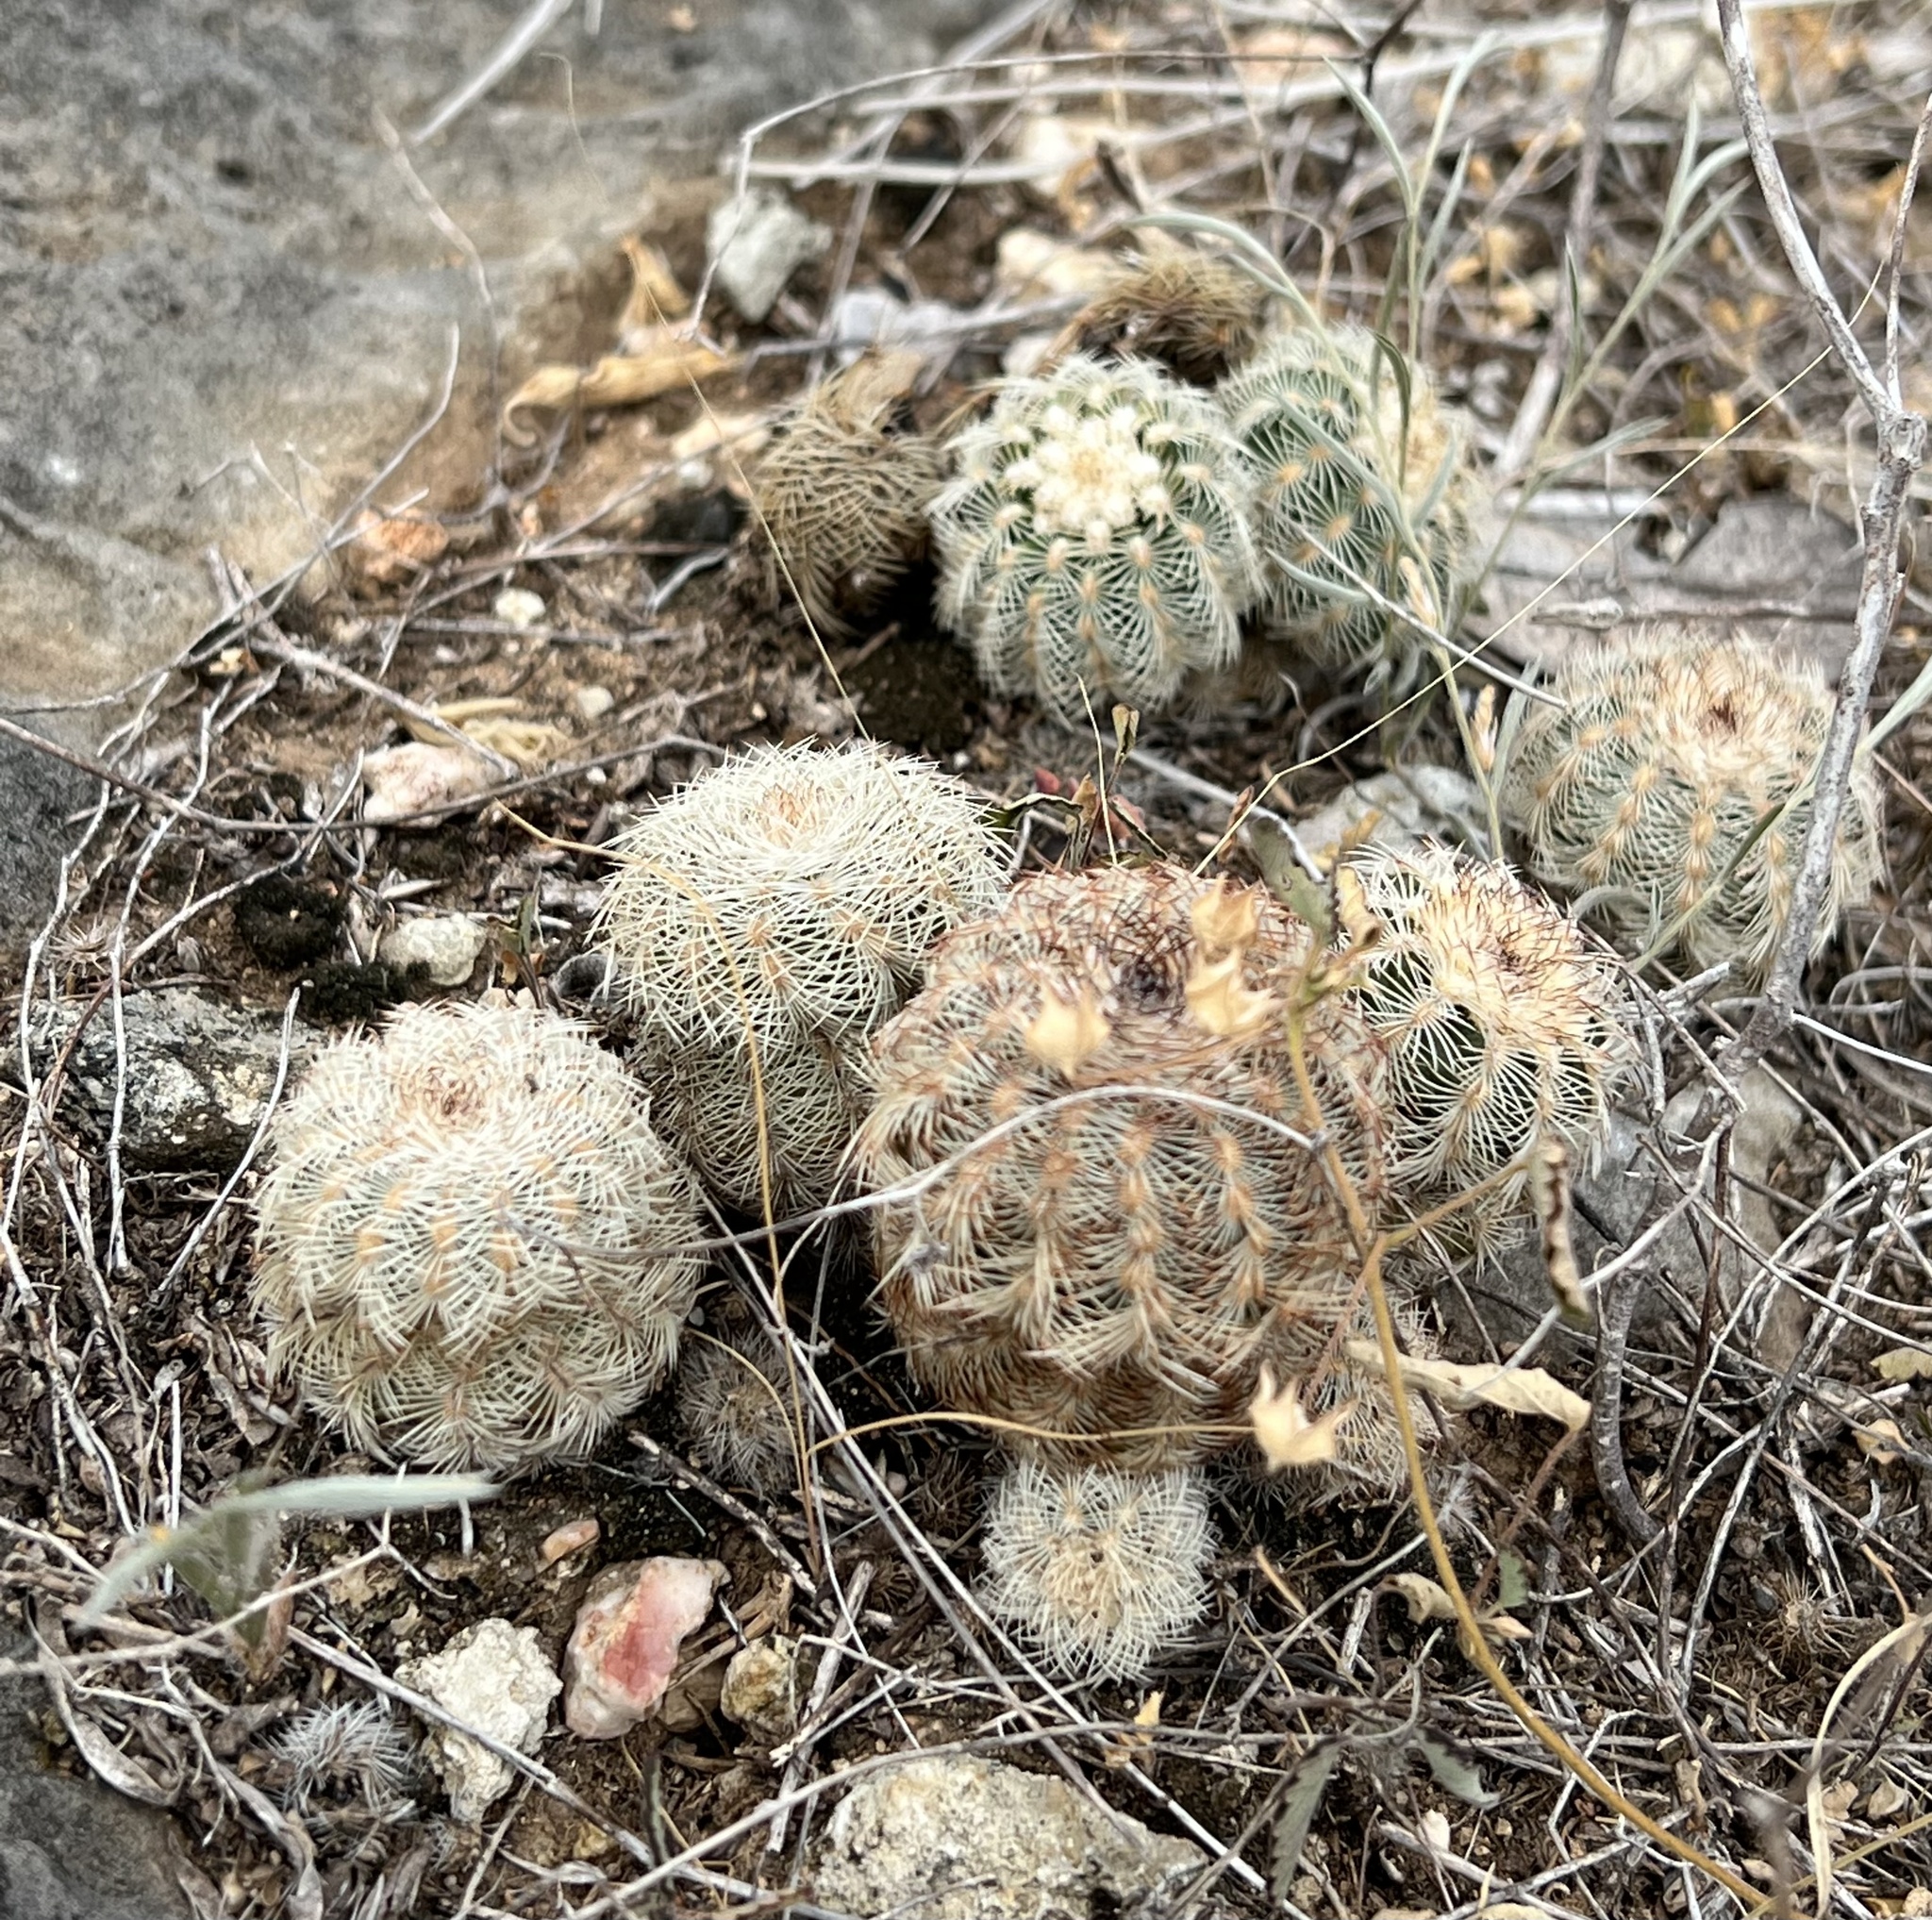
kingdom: Plantae
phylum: Tracheophyta
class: Magnoliopsida
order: Caryophyllales
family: Cactaceae
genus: Echinocereus
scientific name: Echinocereus reichenbachii
